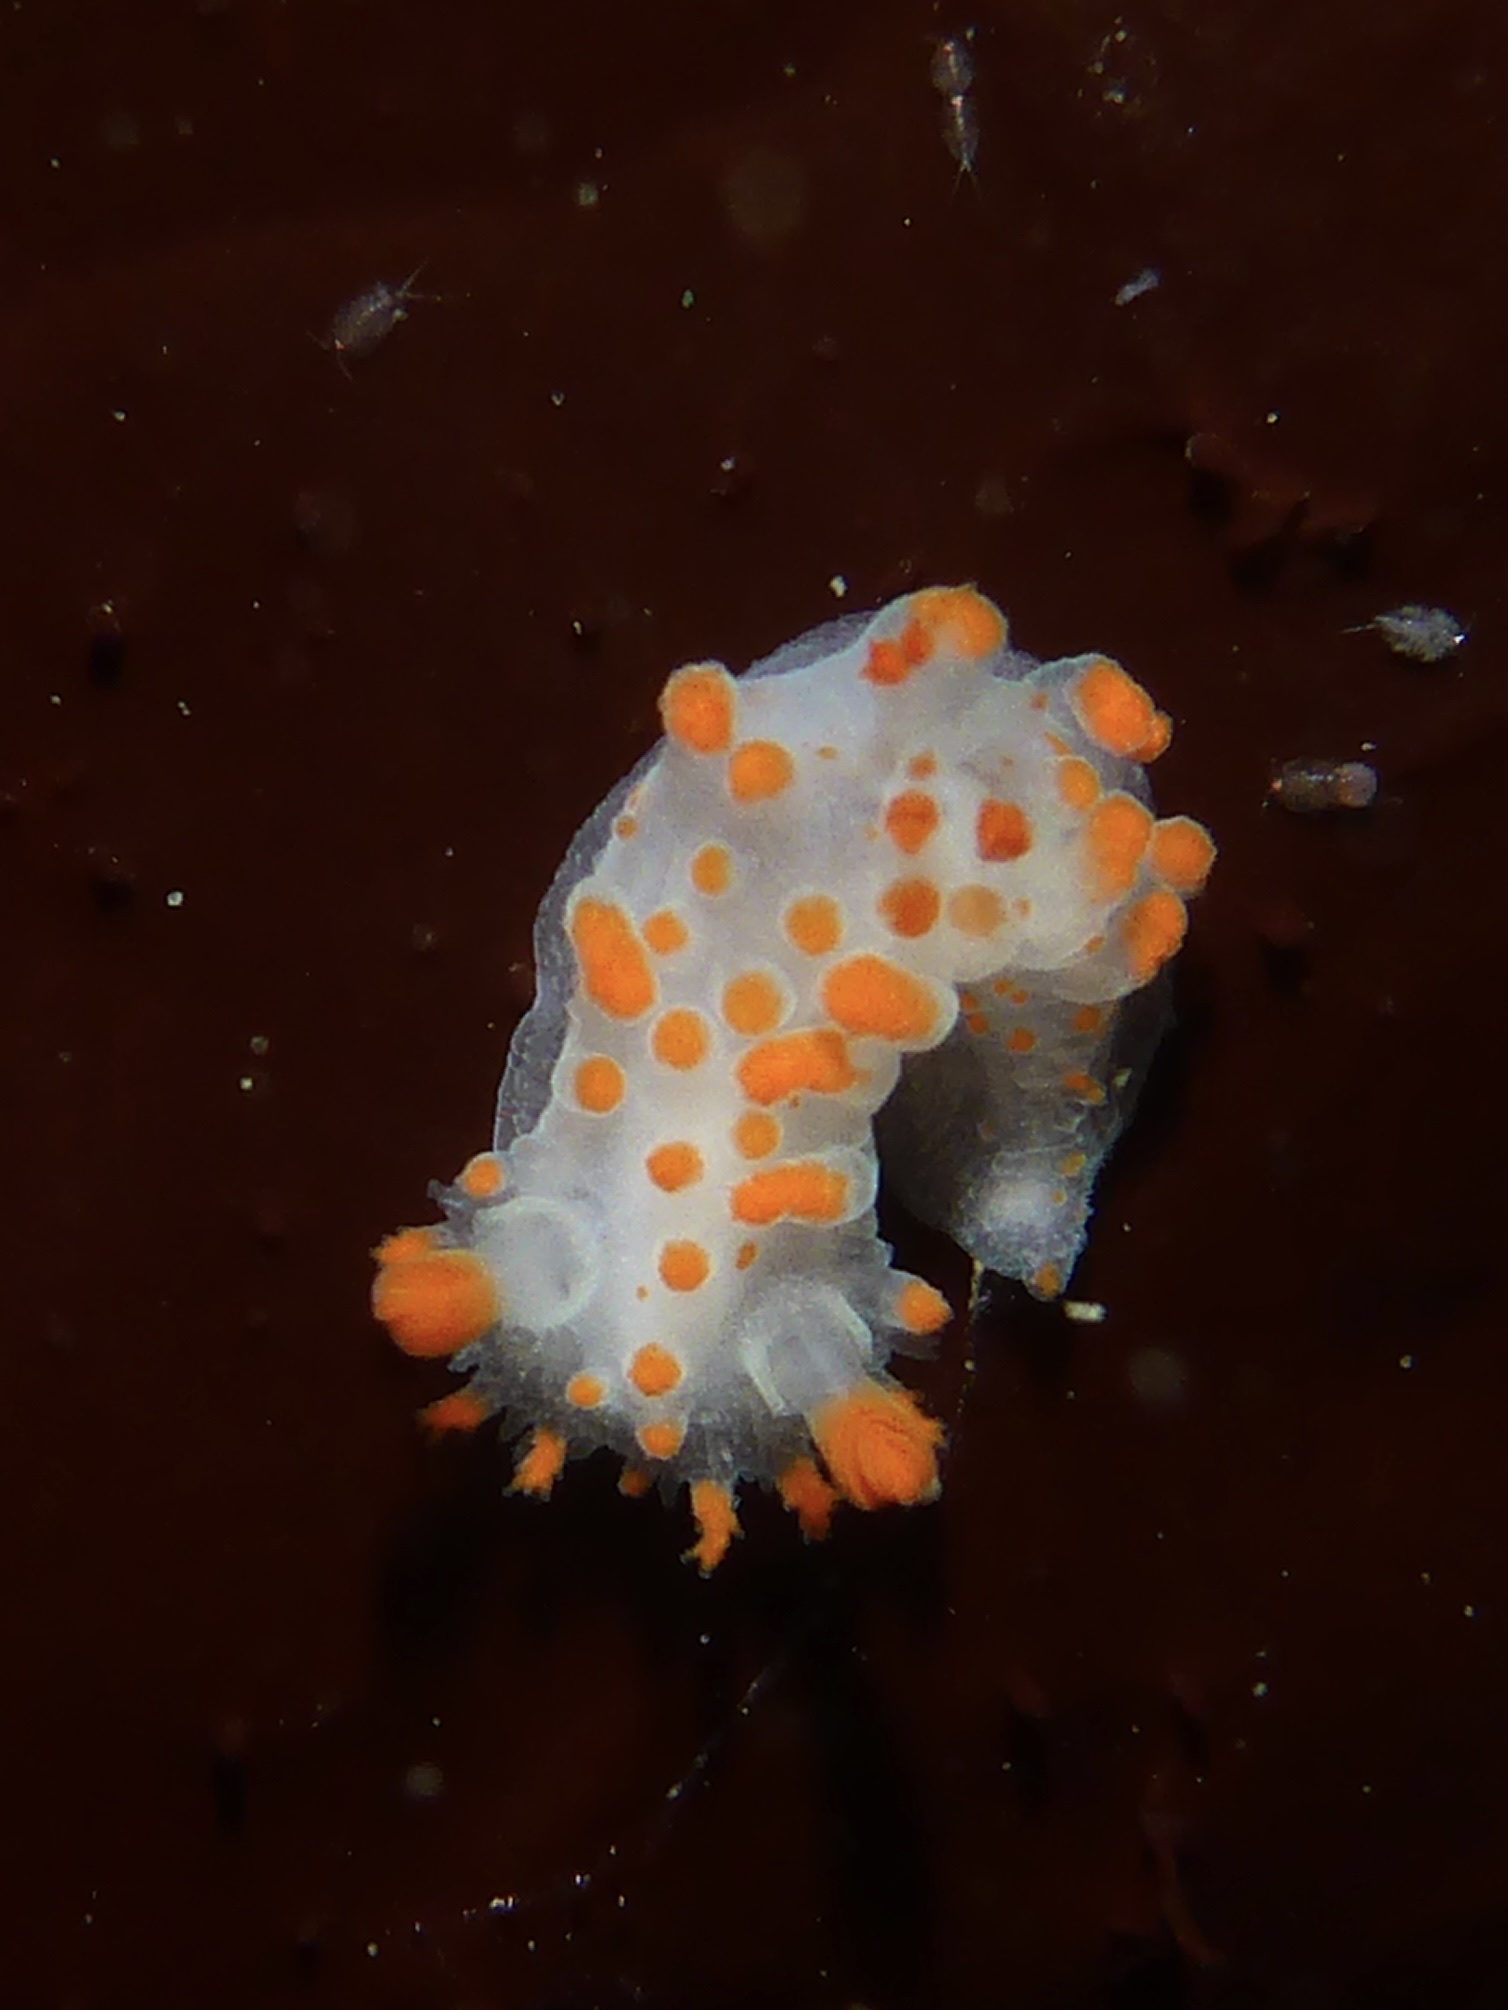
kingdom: Animalia
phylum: Mollusca
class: Gastropoda
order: Nudibranchia
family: Polyceridae
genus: Triopha
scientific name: Triopha catalinae
